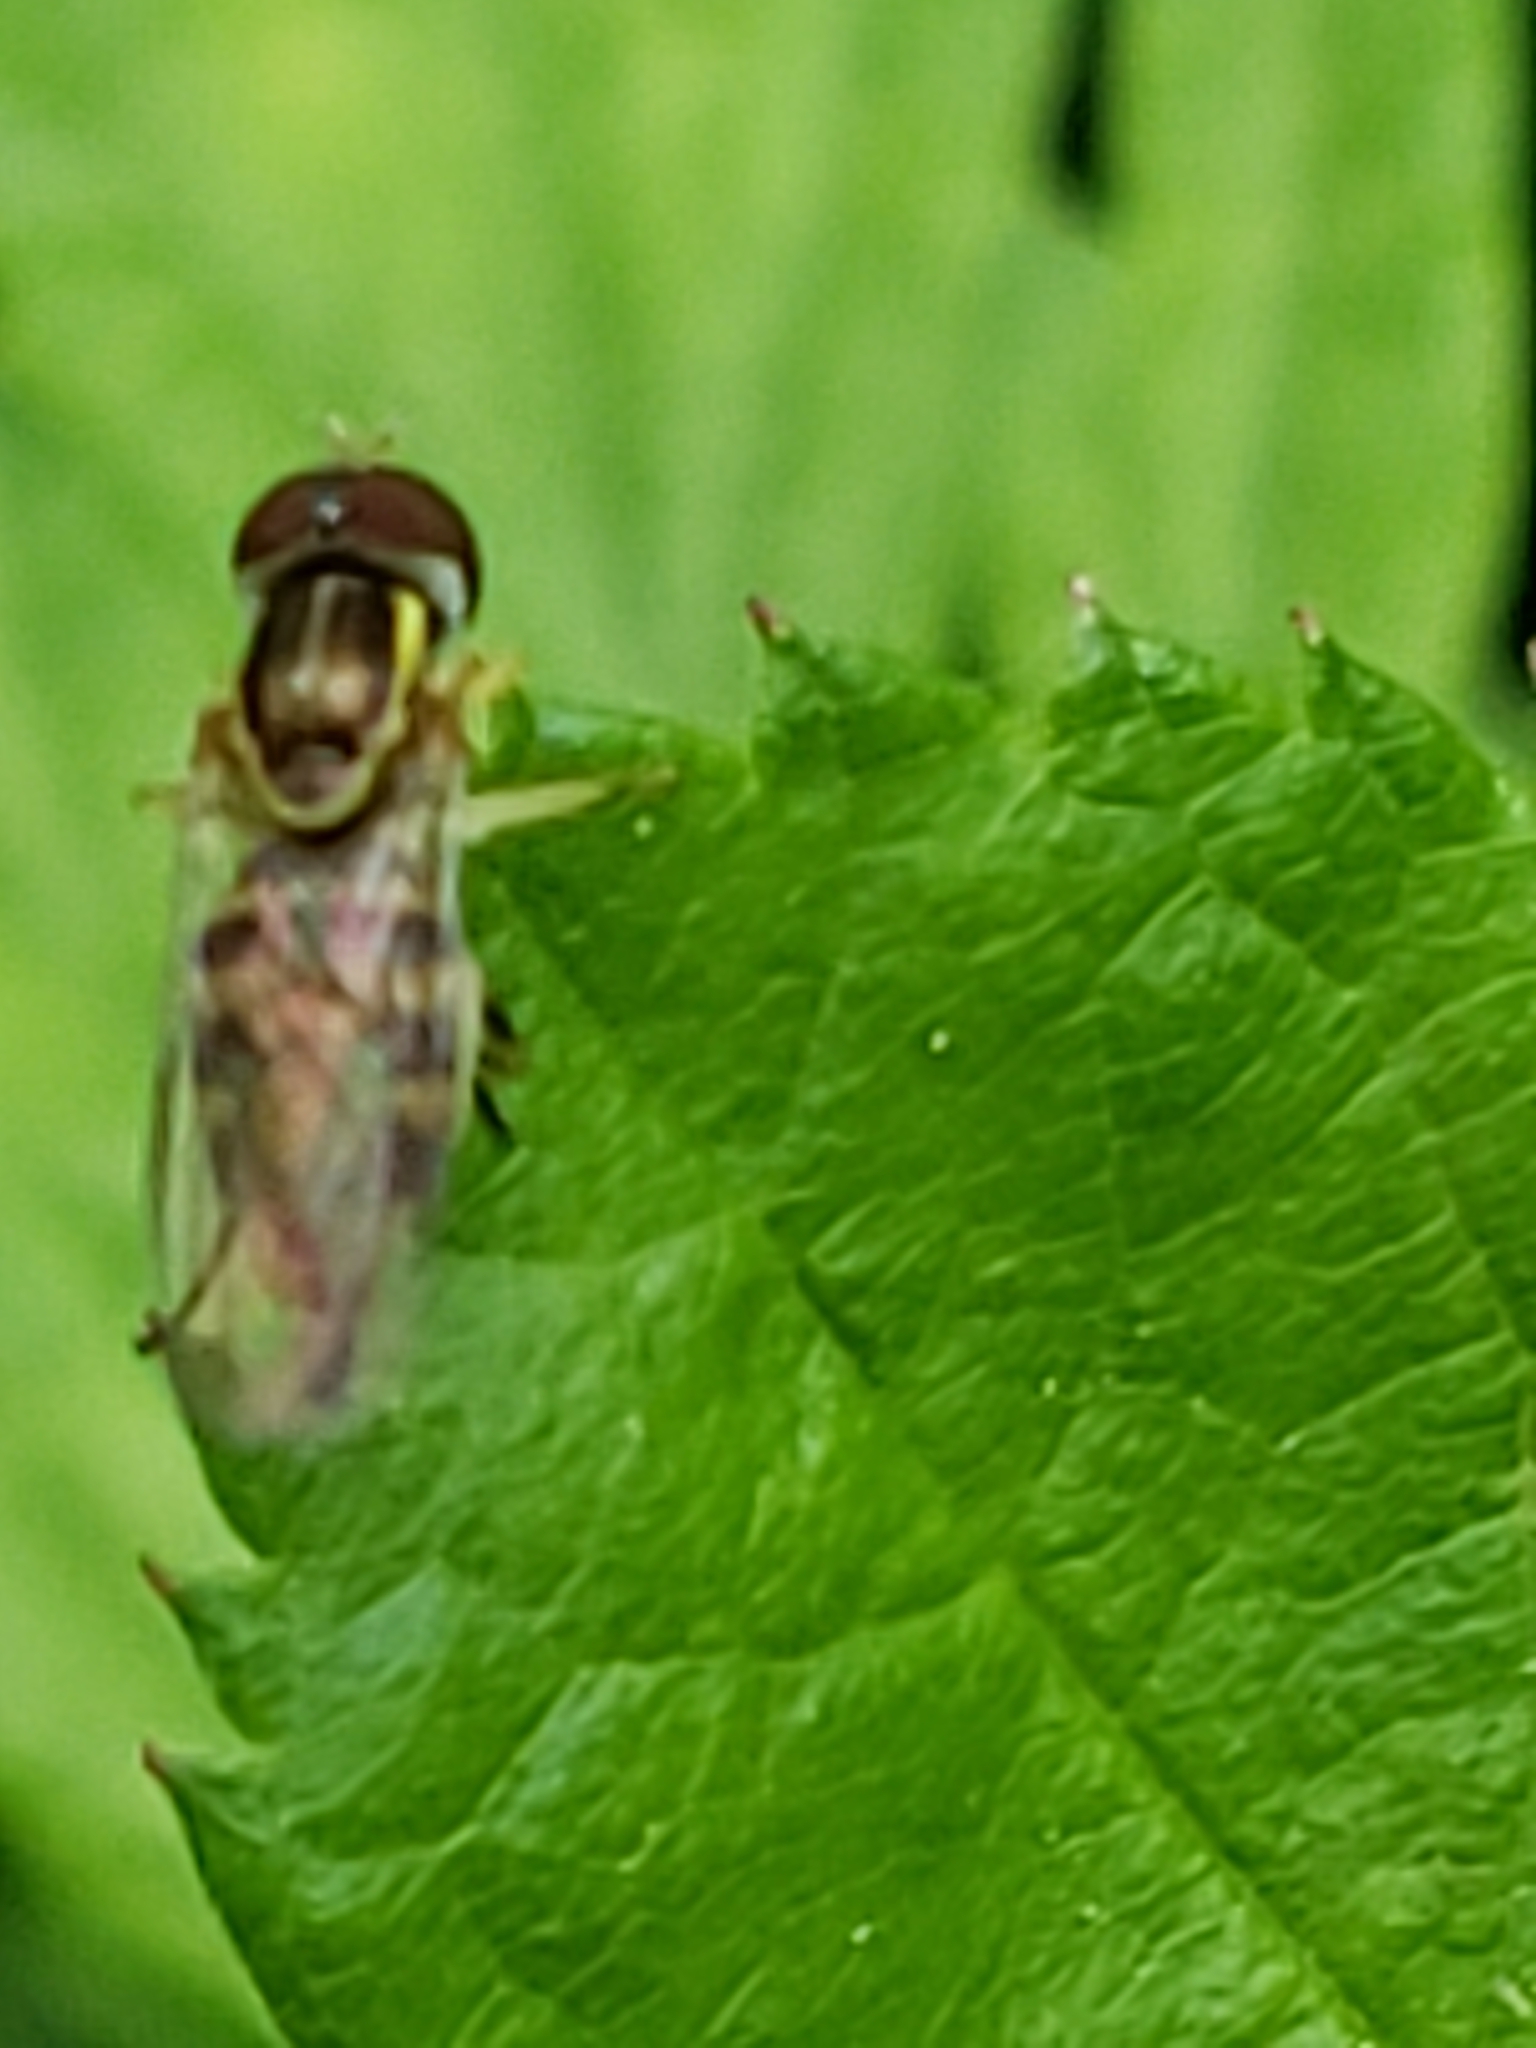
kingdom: Animalia
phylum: Arthropoda
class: Insecta
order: Diptera
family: Syrphidae
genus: Toxomerus
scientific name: Toxomerus geminatus
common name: Eastern calligrapher
